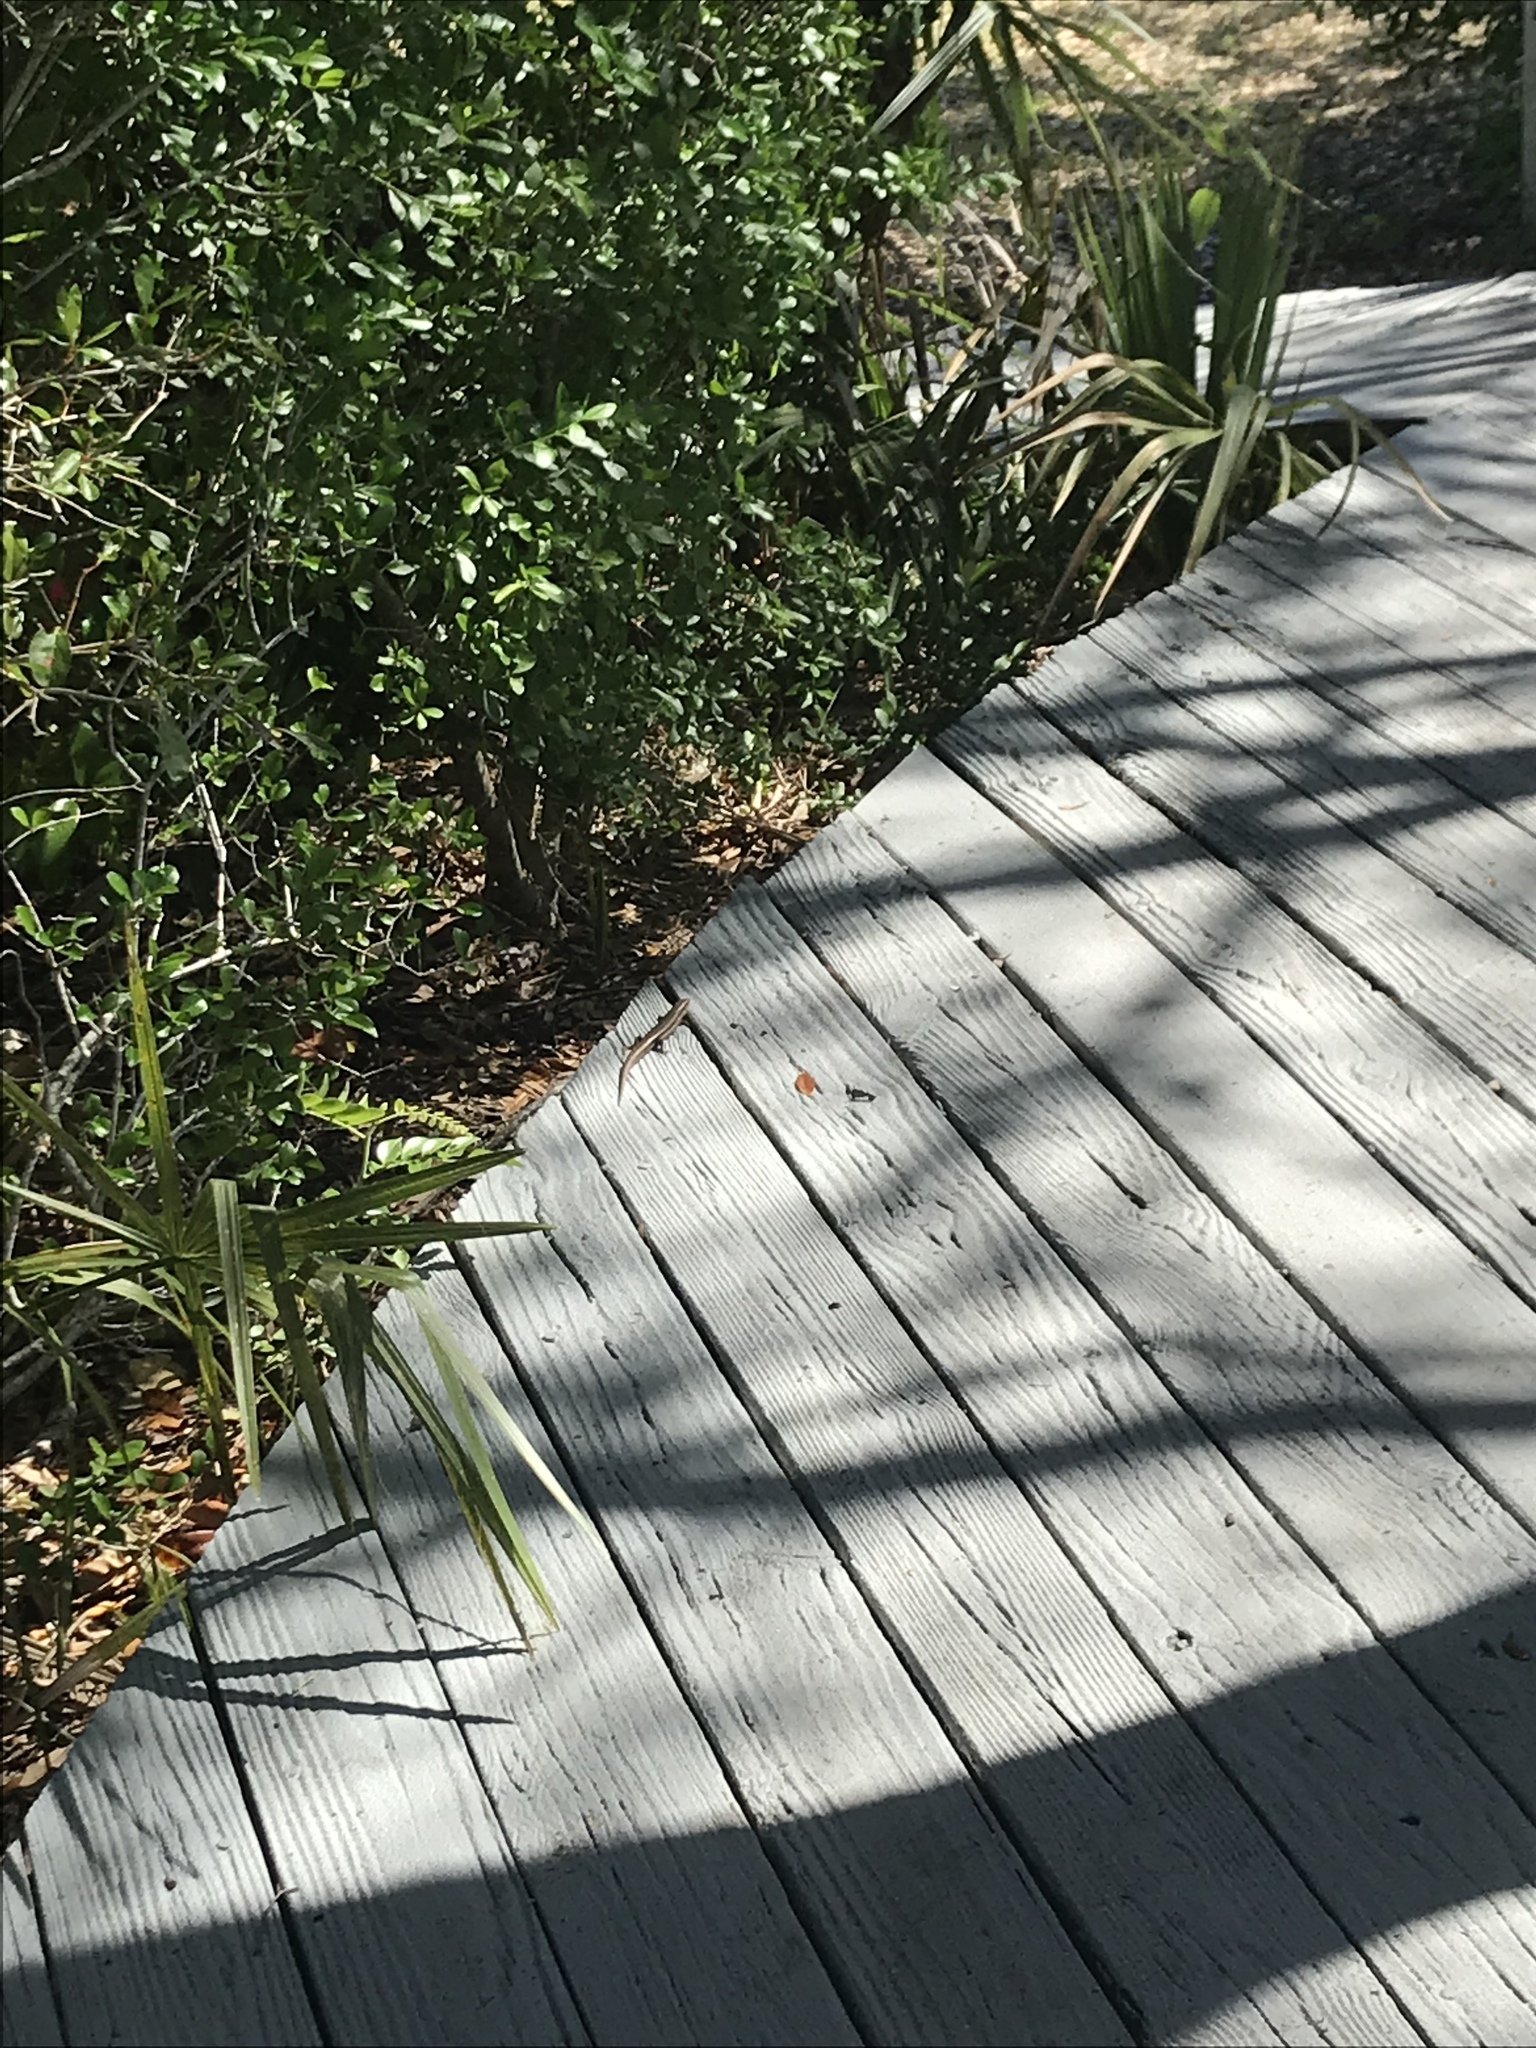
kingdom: Animalia
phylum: Chordata
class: Squamata
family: Scincidae
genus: Plestiodon
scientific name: Plestiodon
